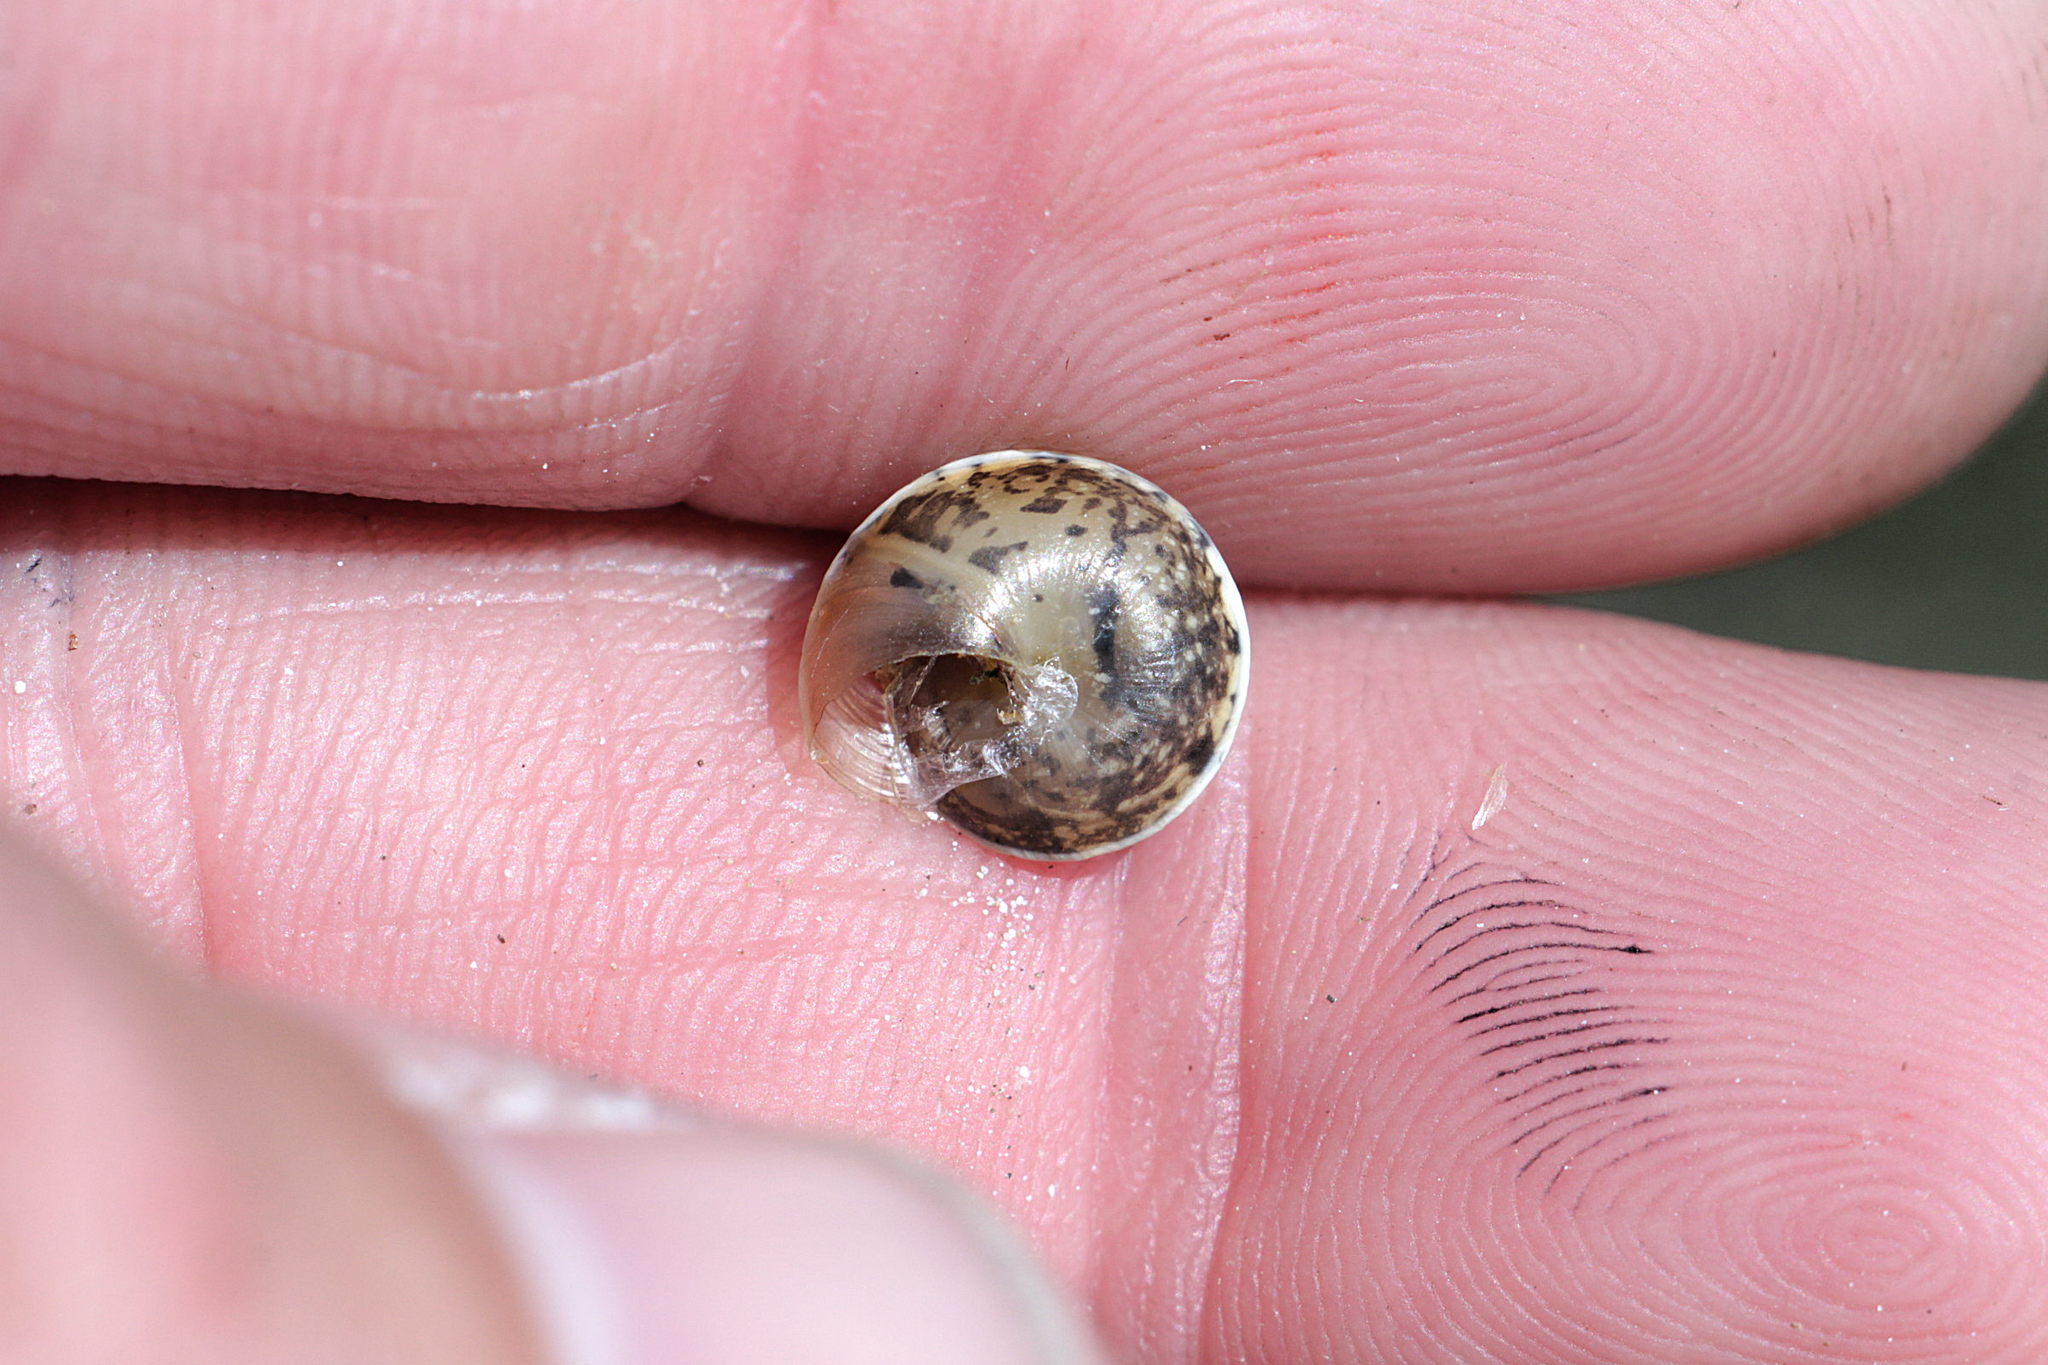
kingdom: Animalia
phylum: Mollusca
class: Gastropoda
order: Stylommatophora
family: Hygromiidae
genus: Hygromia
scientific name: Hygromia cinctella
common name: Girdled snail
